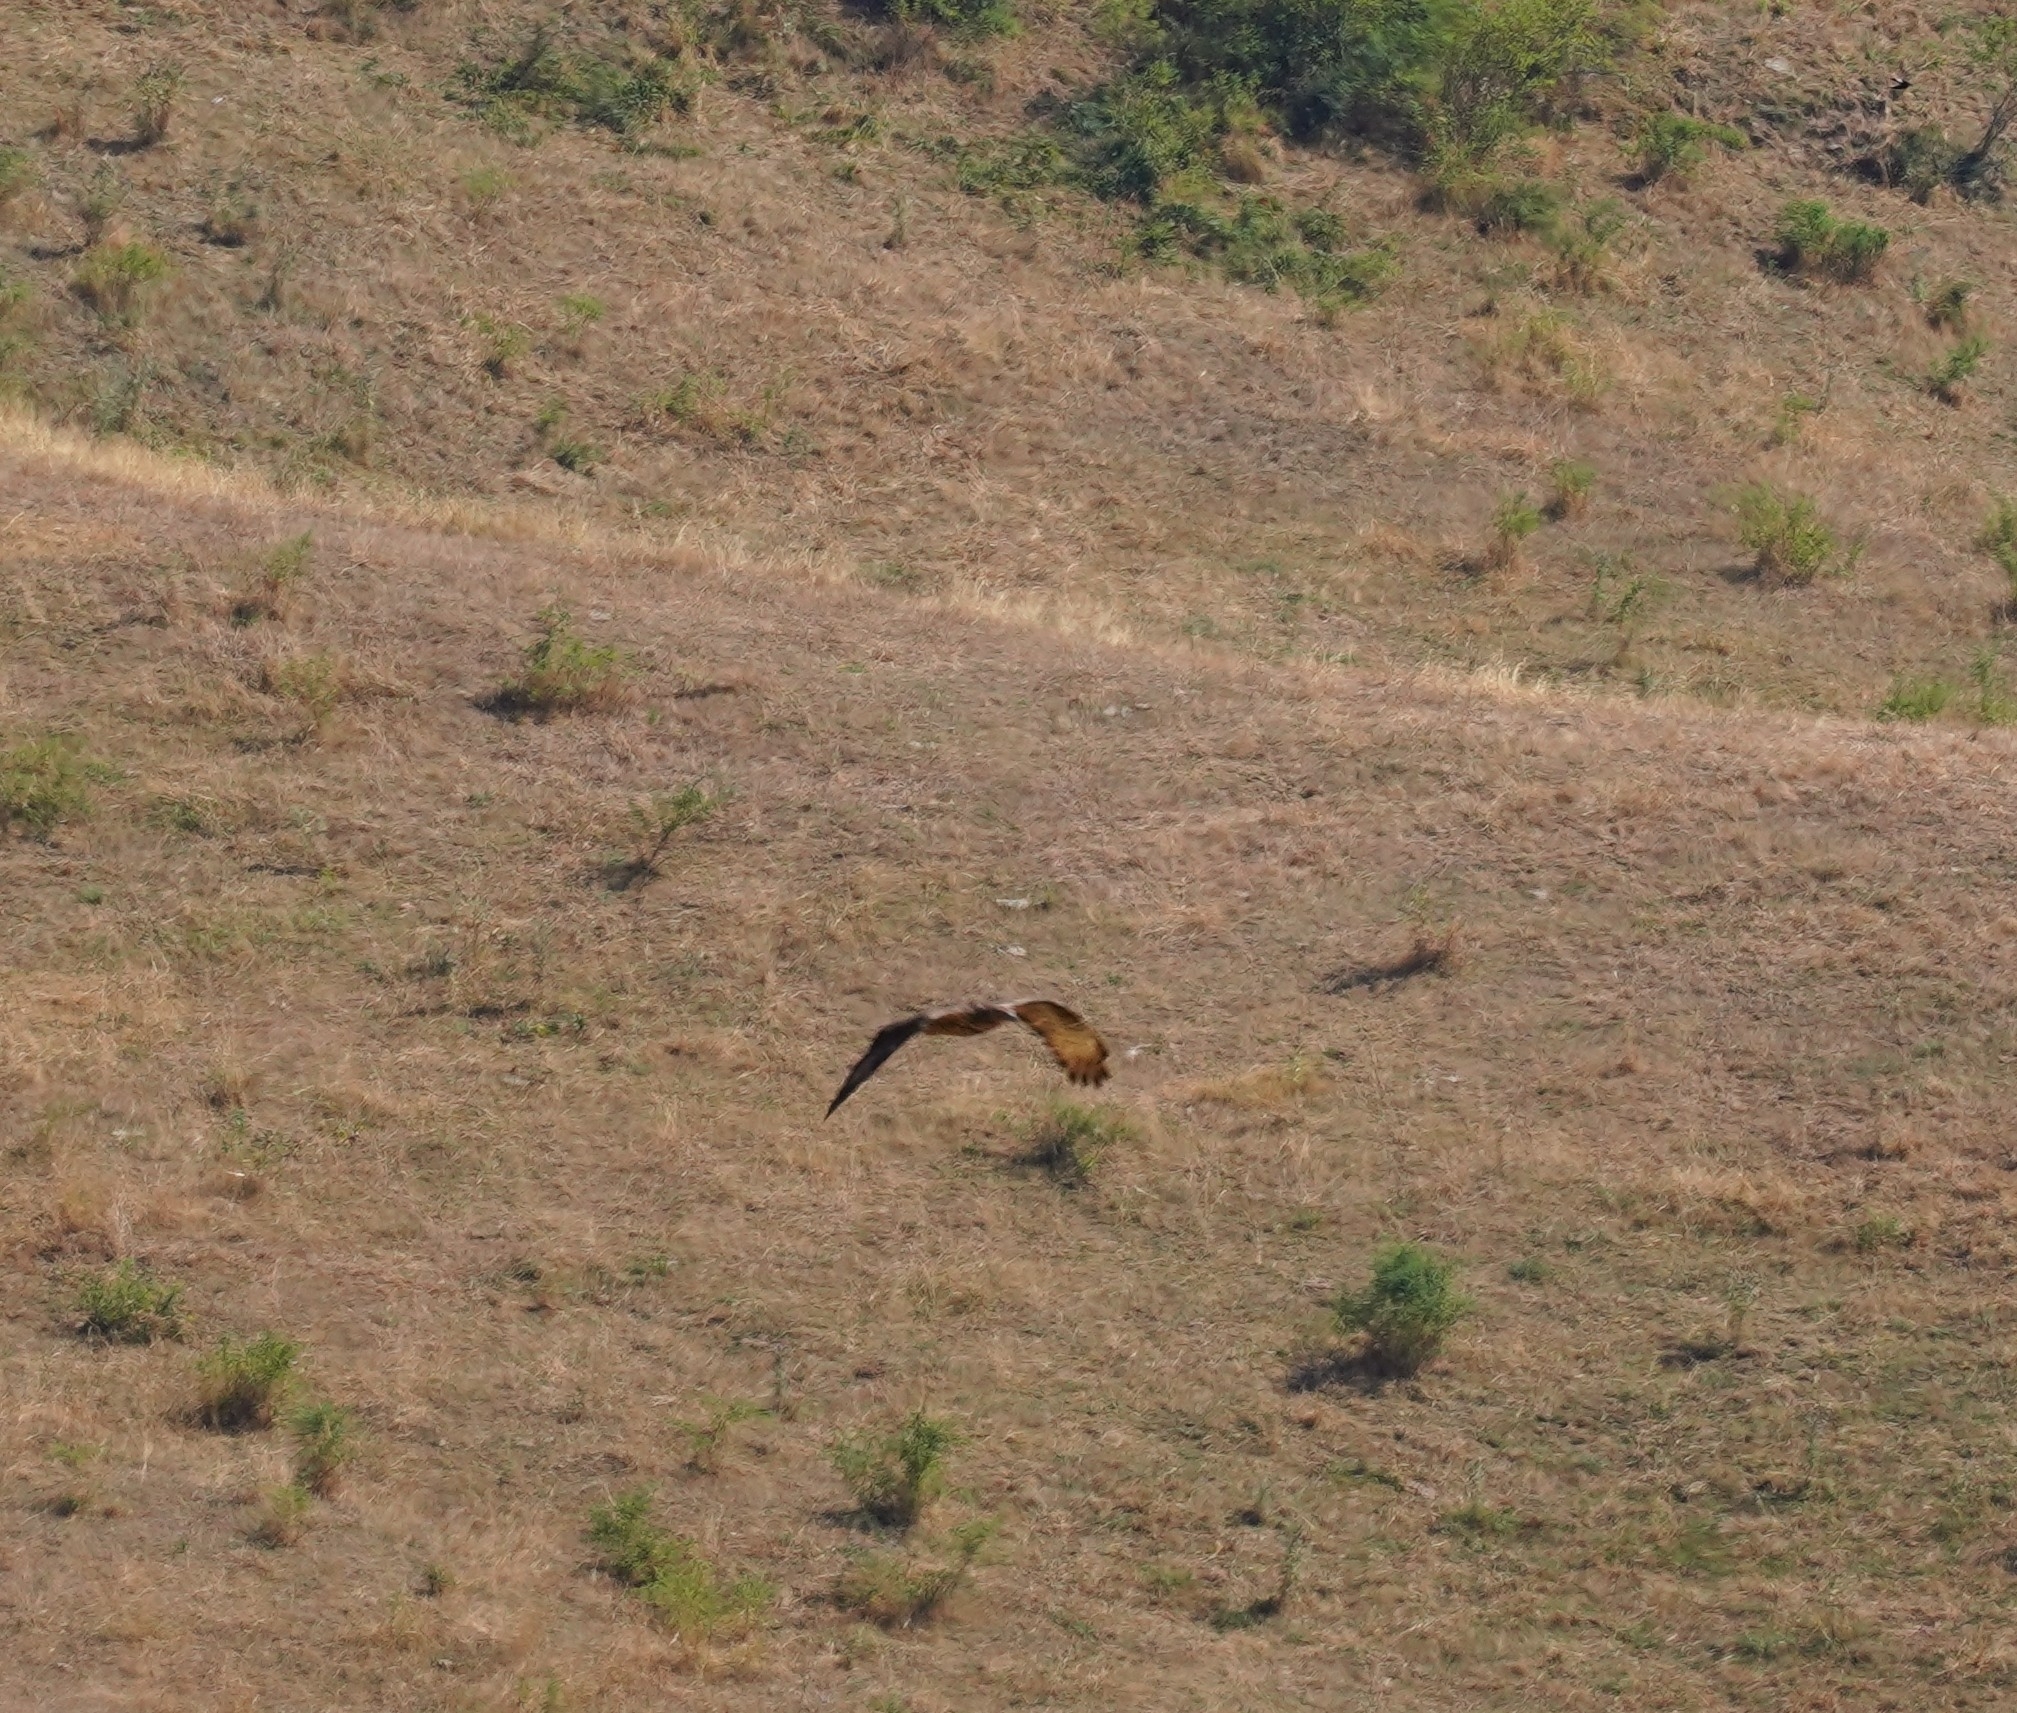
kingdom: Animalia
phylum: Chordata
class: Aves
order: Accipitriformes
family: Accipitridae
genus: Pernis
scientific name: Pernis apivorus
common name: European honey buzzard
